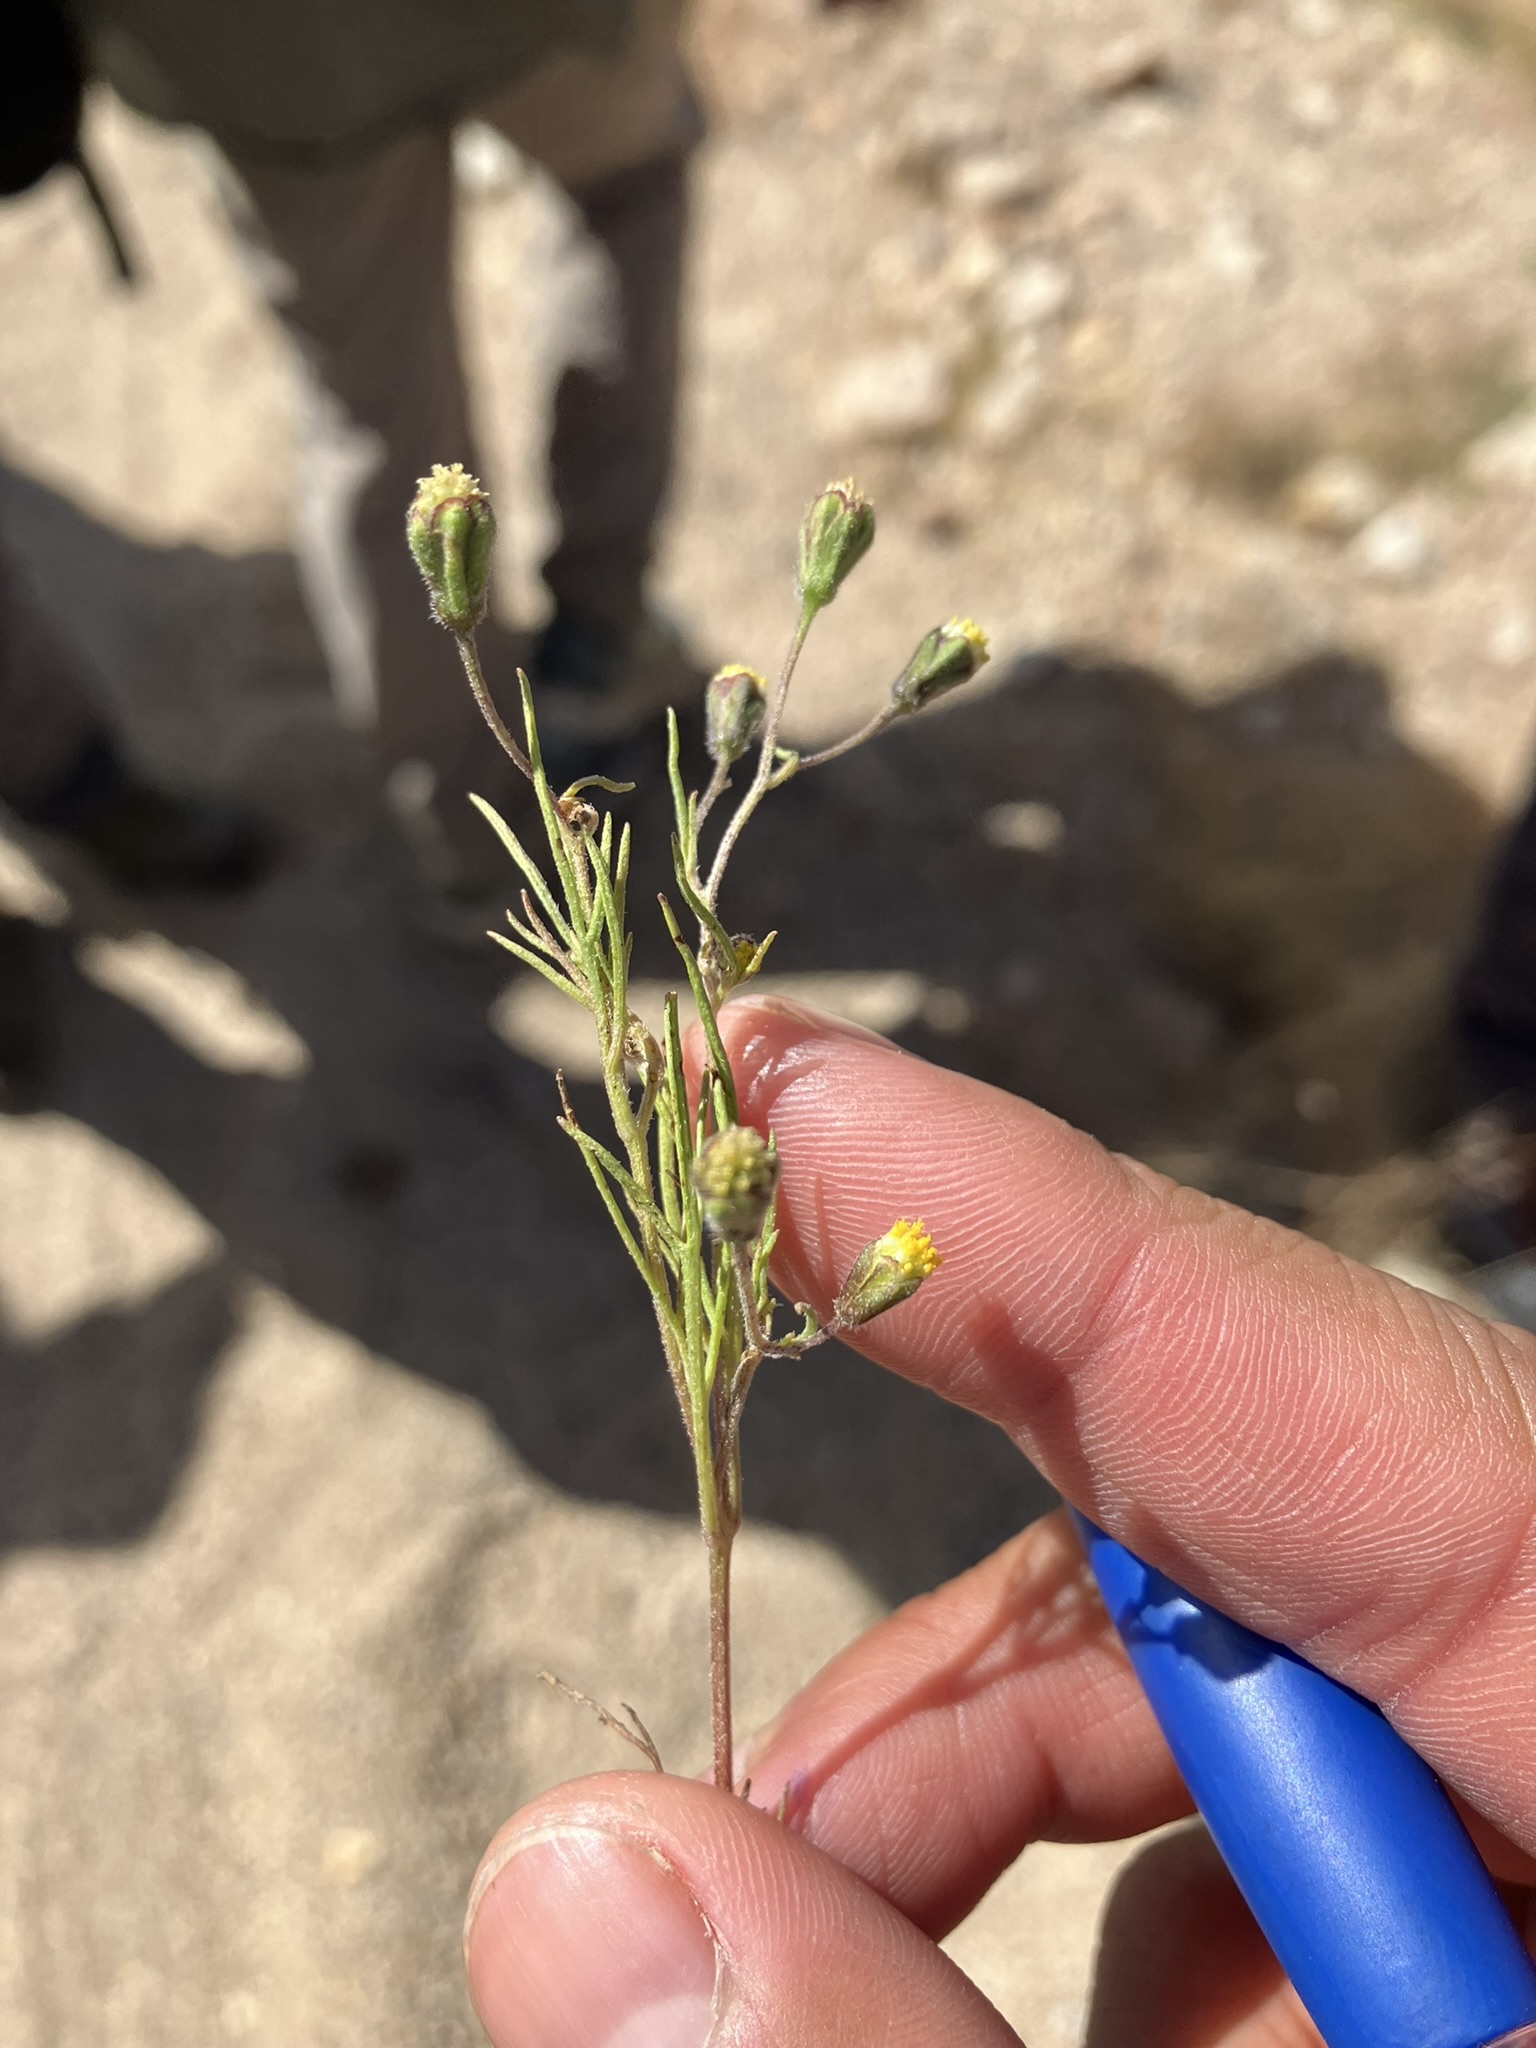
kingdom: Plantae
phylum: Tracheophyta
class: Magnoliopsida
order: Asterales
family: Asteraceae
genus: Picradeniopsis
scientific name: Picradeniopsis multiflora
